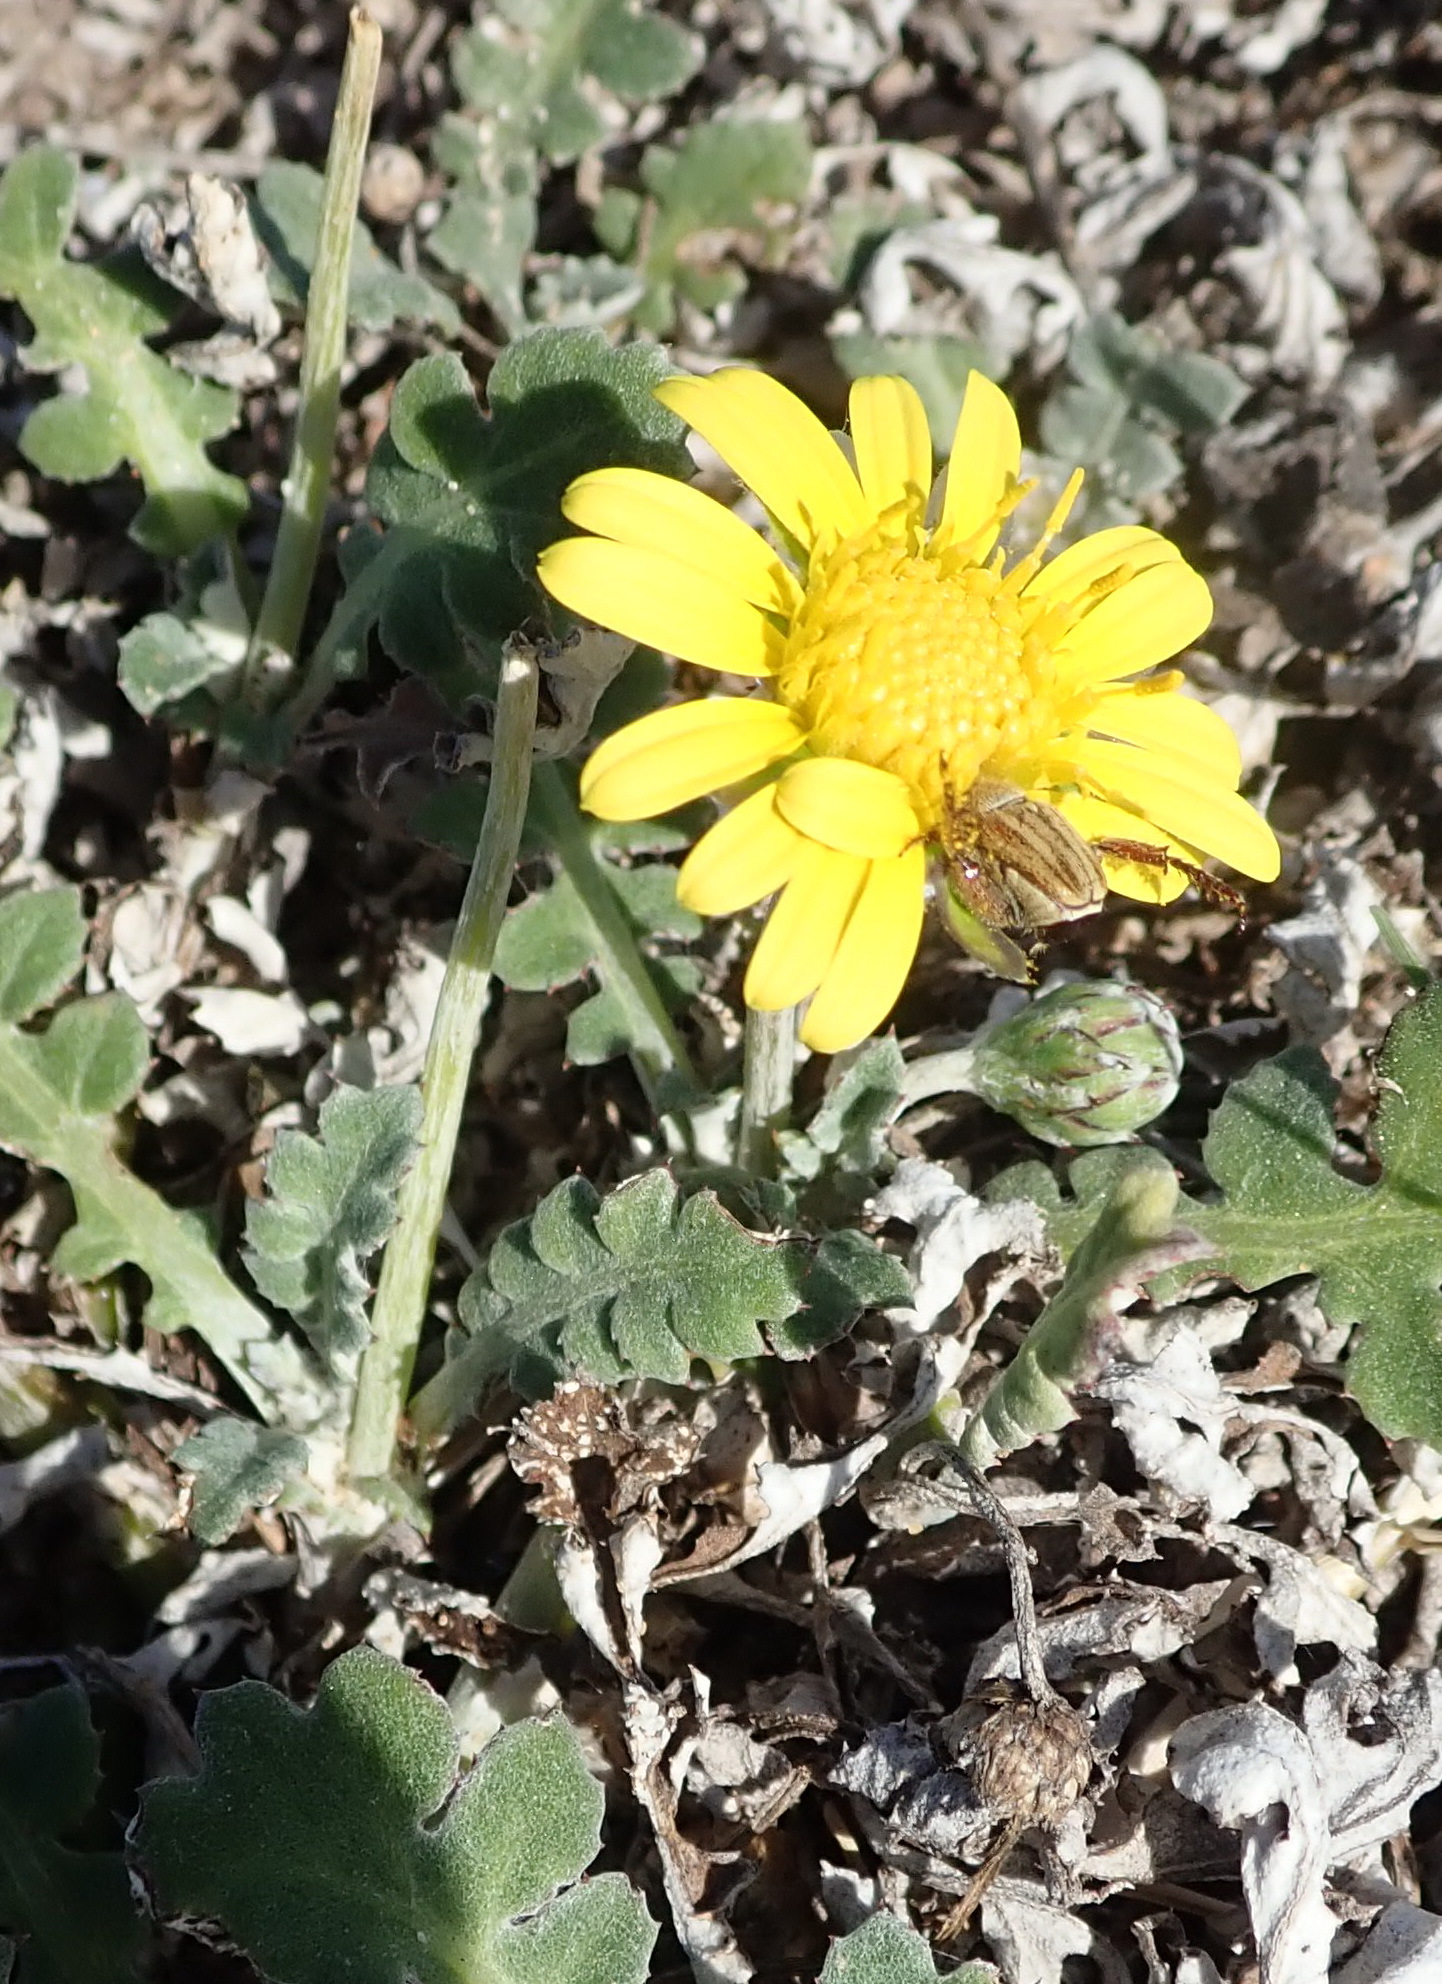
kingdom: Plantae
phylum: Tracheophyta
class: Magnoliopsida
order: Asterales
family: Asteraceae
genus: Arctotheca
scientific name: Arctotheca prostrata
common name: Capeweed
